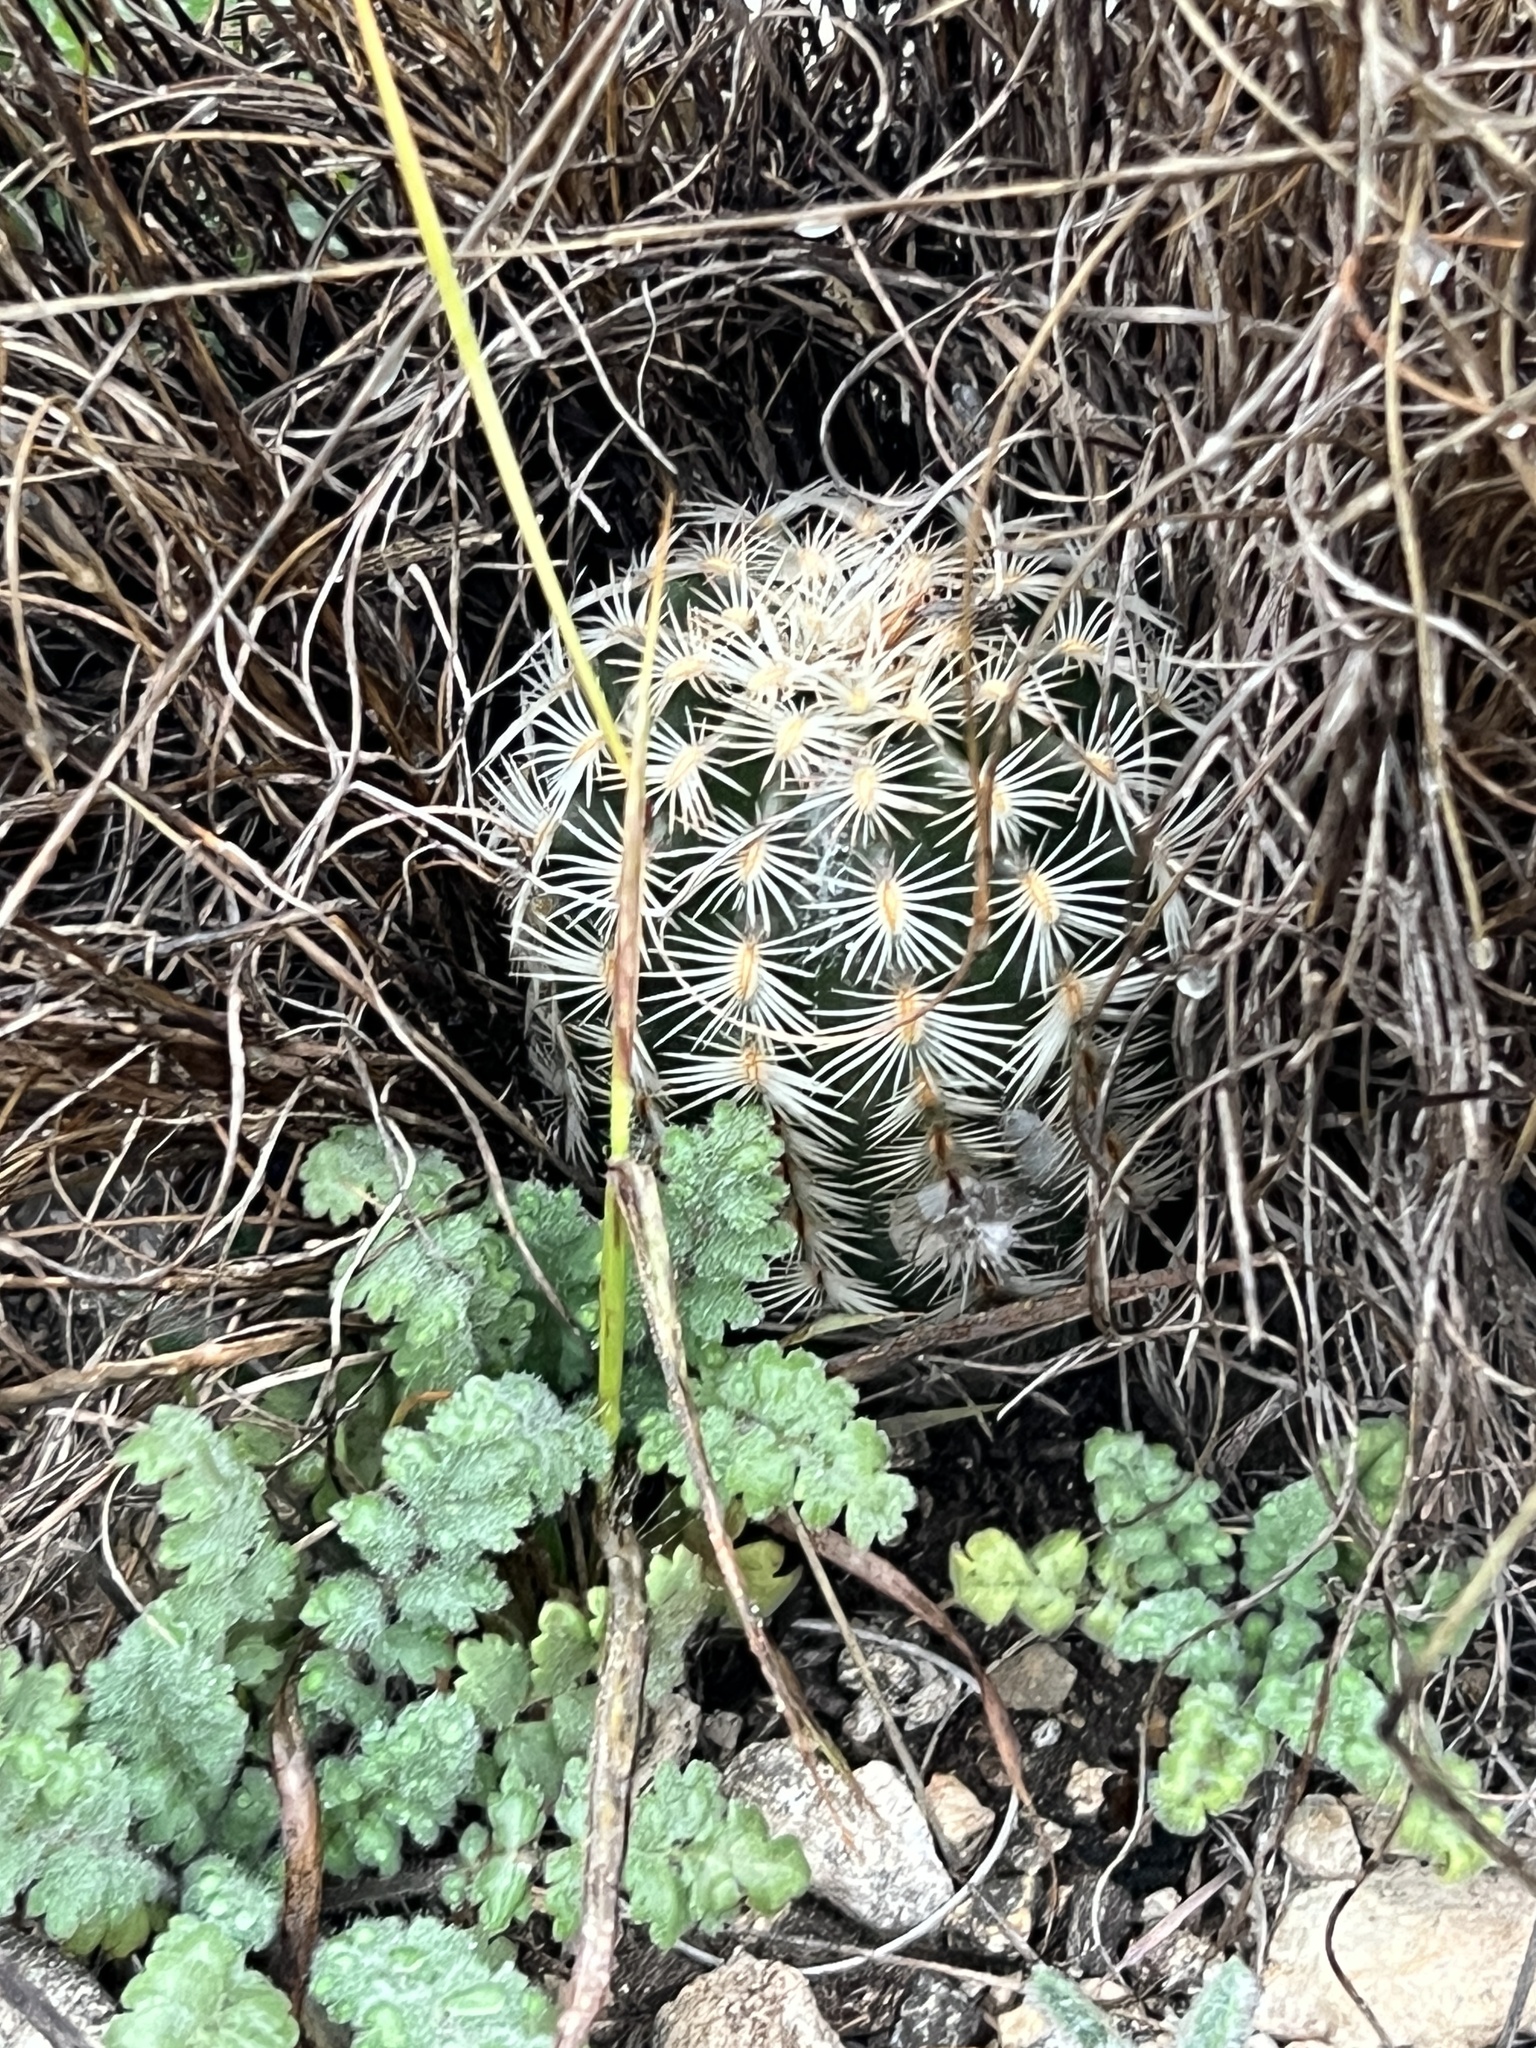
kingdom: Plantae
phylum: Tracheophyta
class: Magnoliopsida
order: Caryophyllales
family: Cactaceae
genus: Echinocereus
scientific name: Echinocereus reichenbachii
